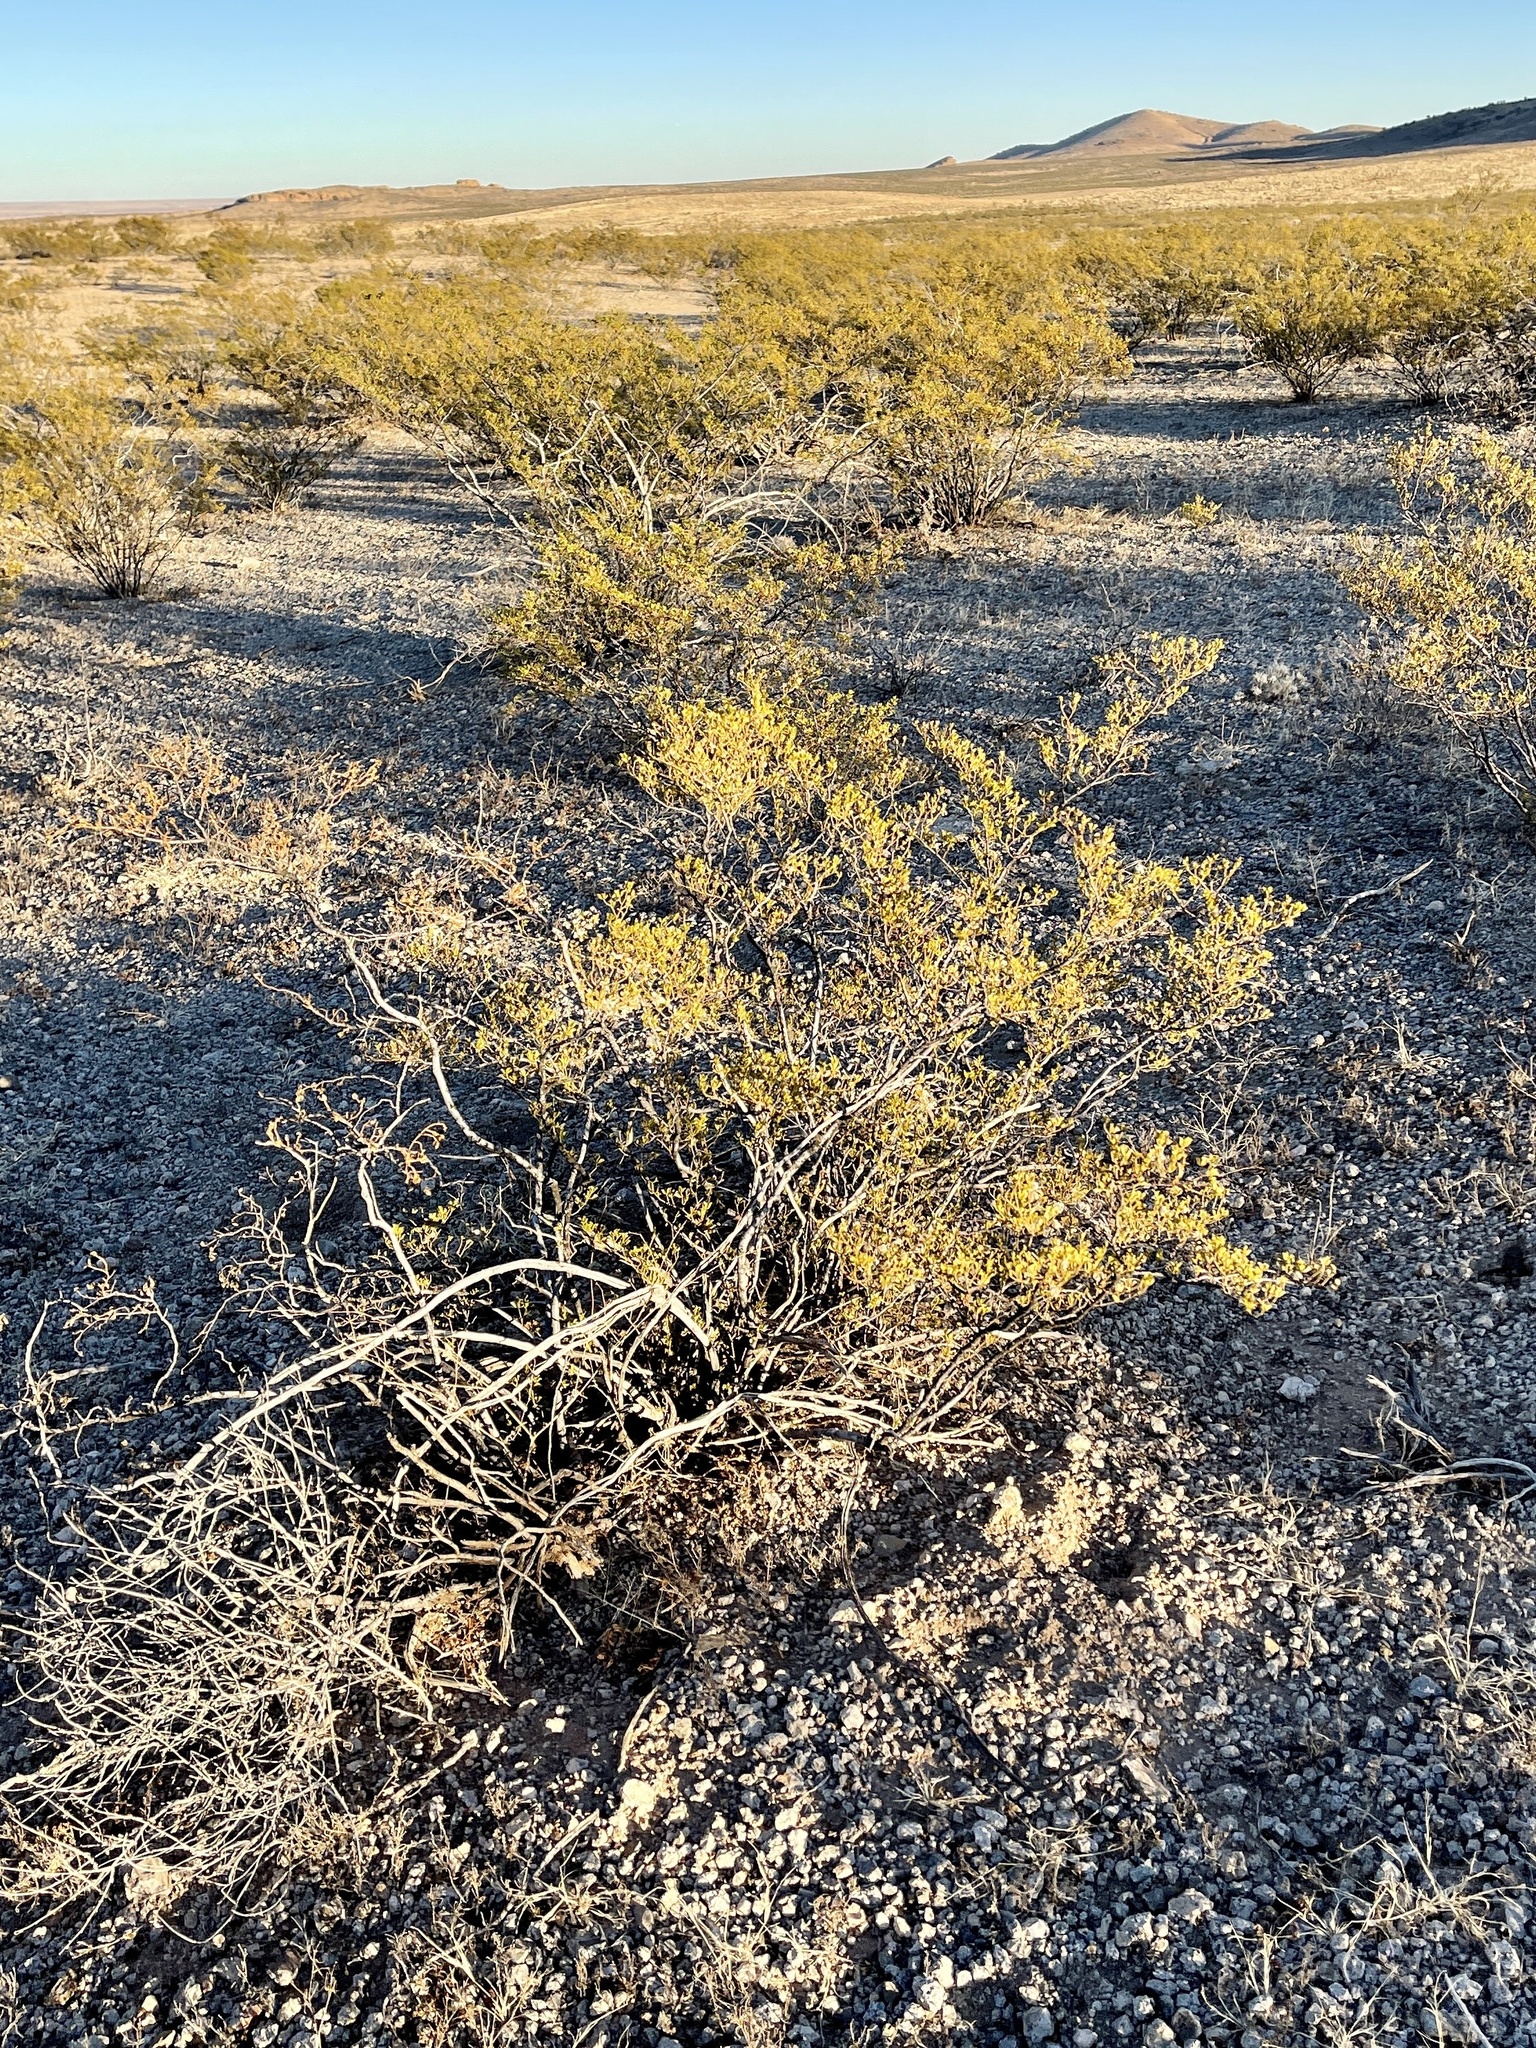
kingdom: Plantae
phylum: Tracheophyta
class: Magnoliopsida
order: Zygophyllales
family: Zygophyllaceae
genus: Larrea
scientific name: Larrea tridentata
